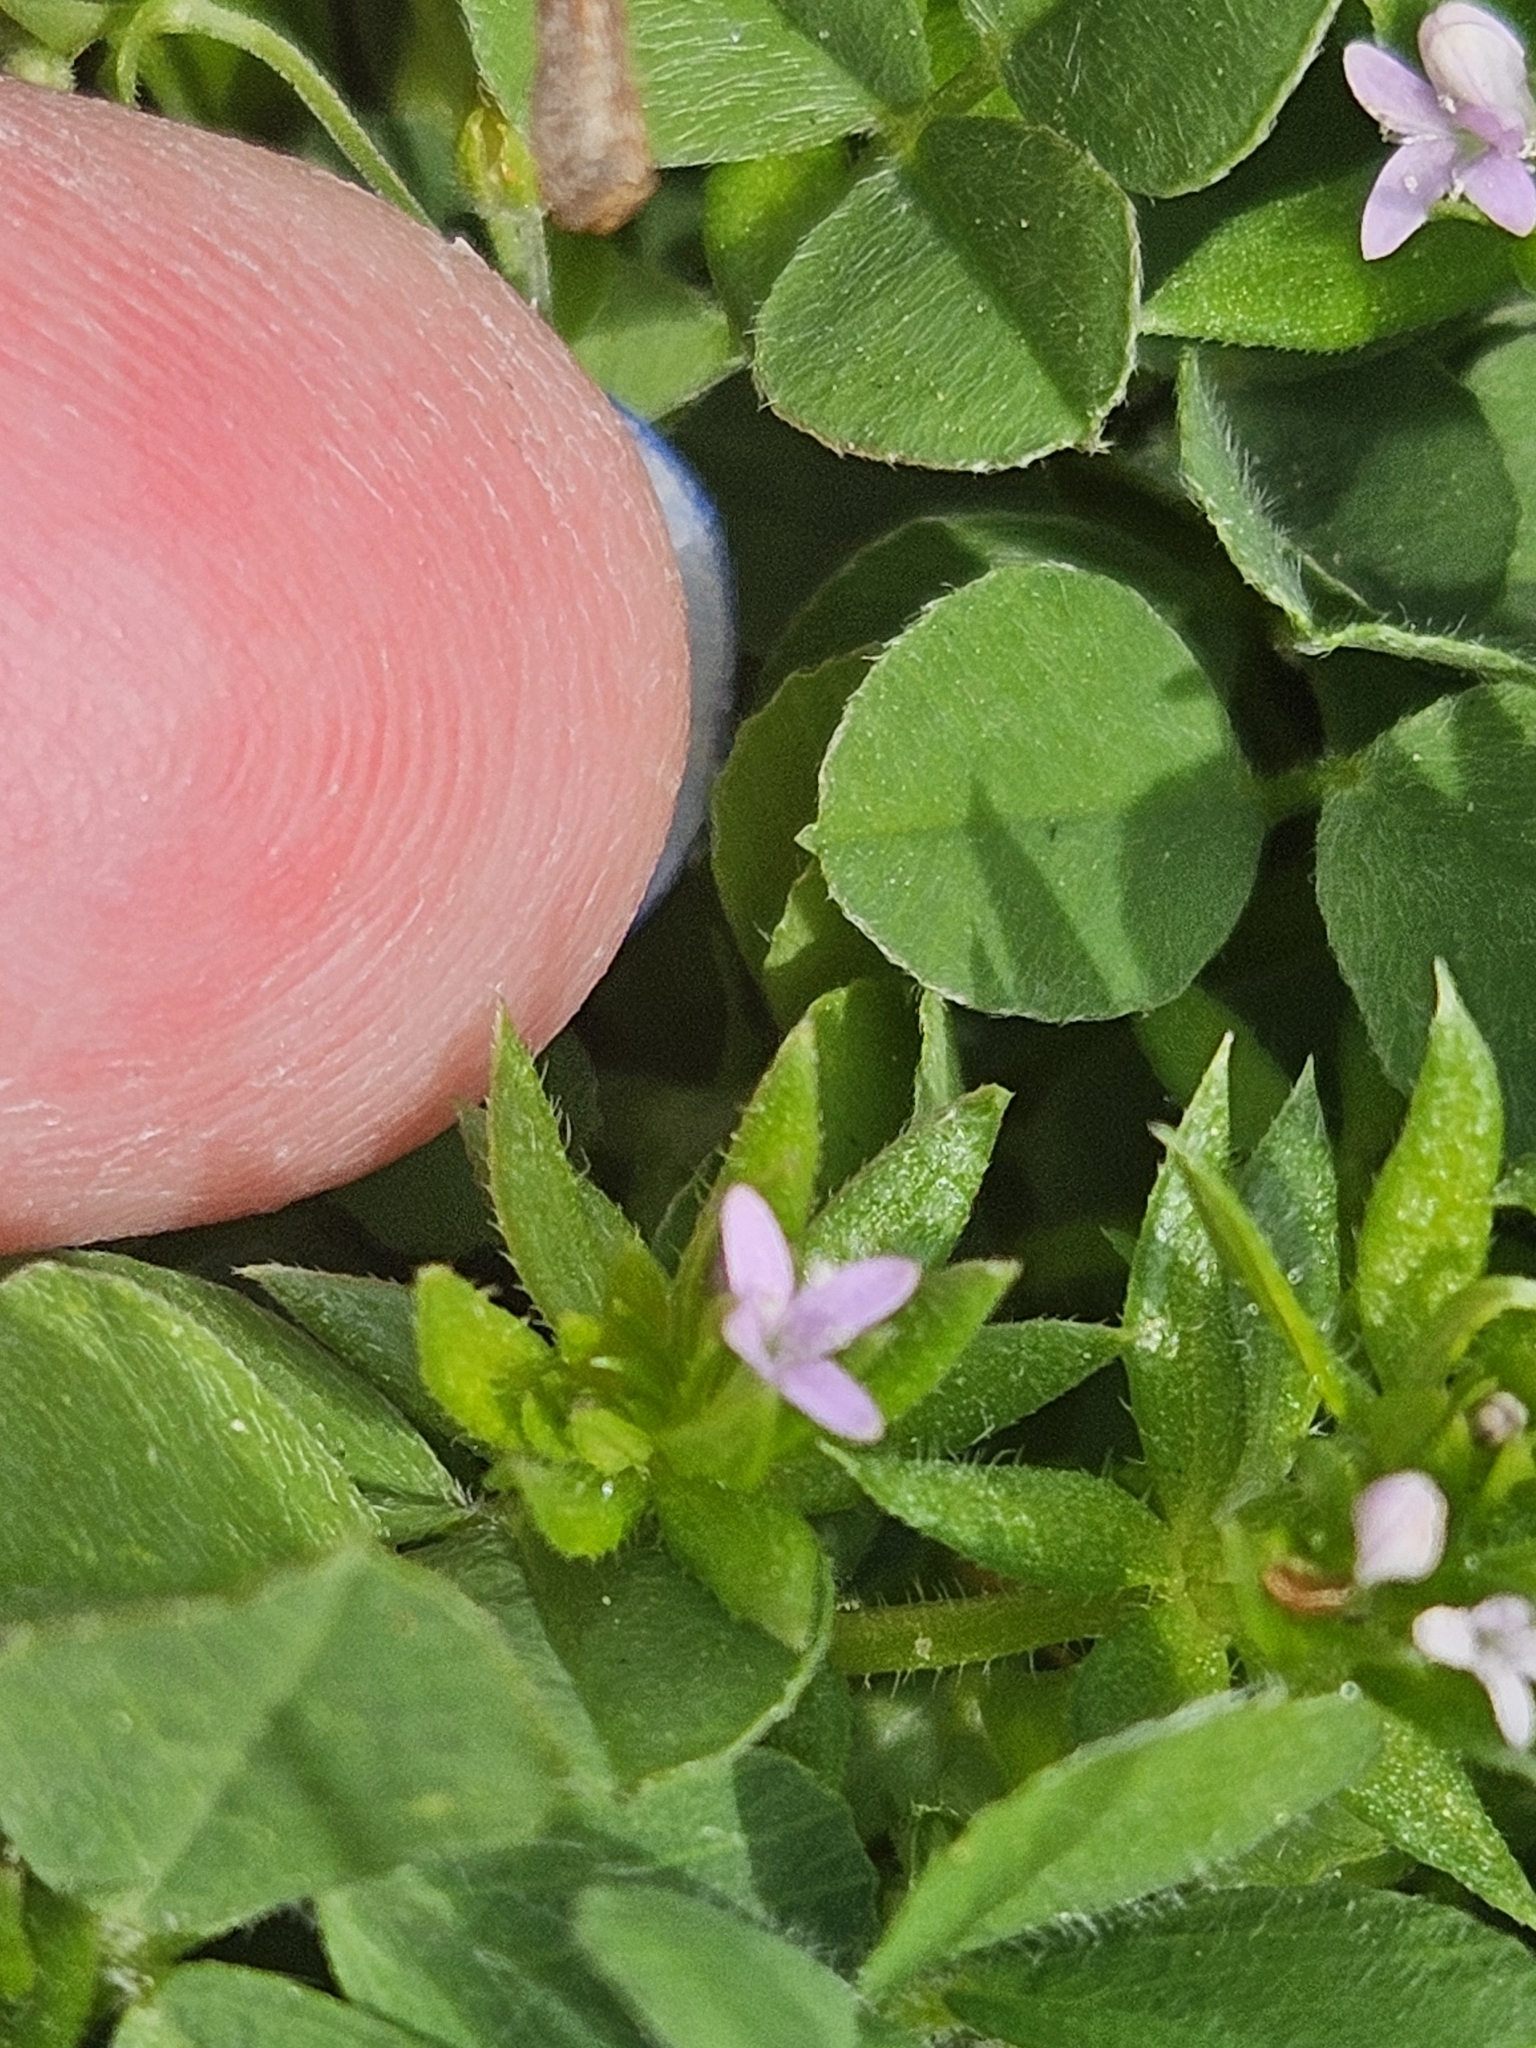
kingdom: Plantae
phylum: Tracheophyta
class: Magnoliopsida
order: Gentianales
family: Rubiaceae
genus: Sherardia
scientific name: Sherardia arvensis
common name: Field madder
